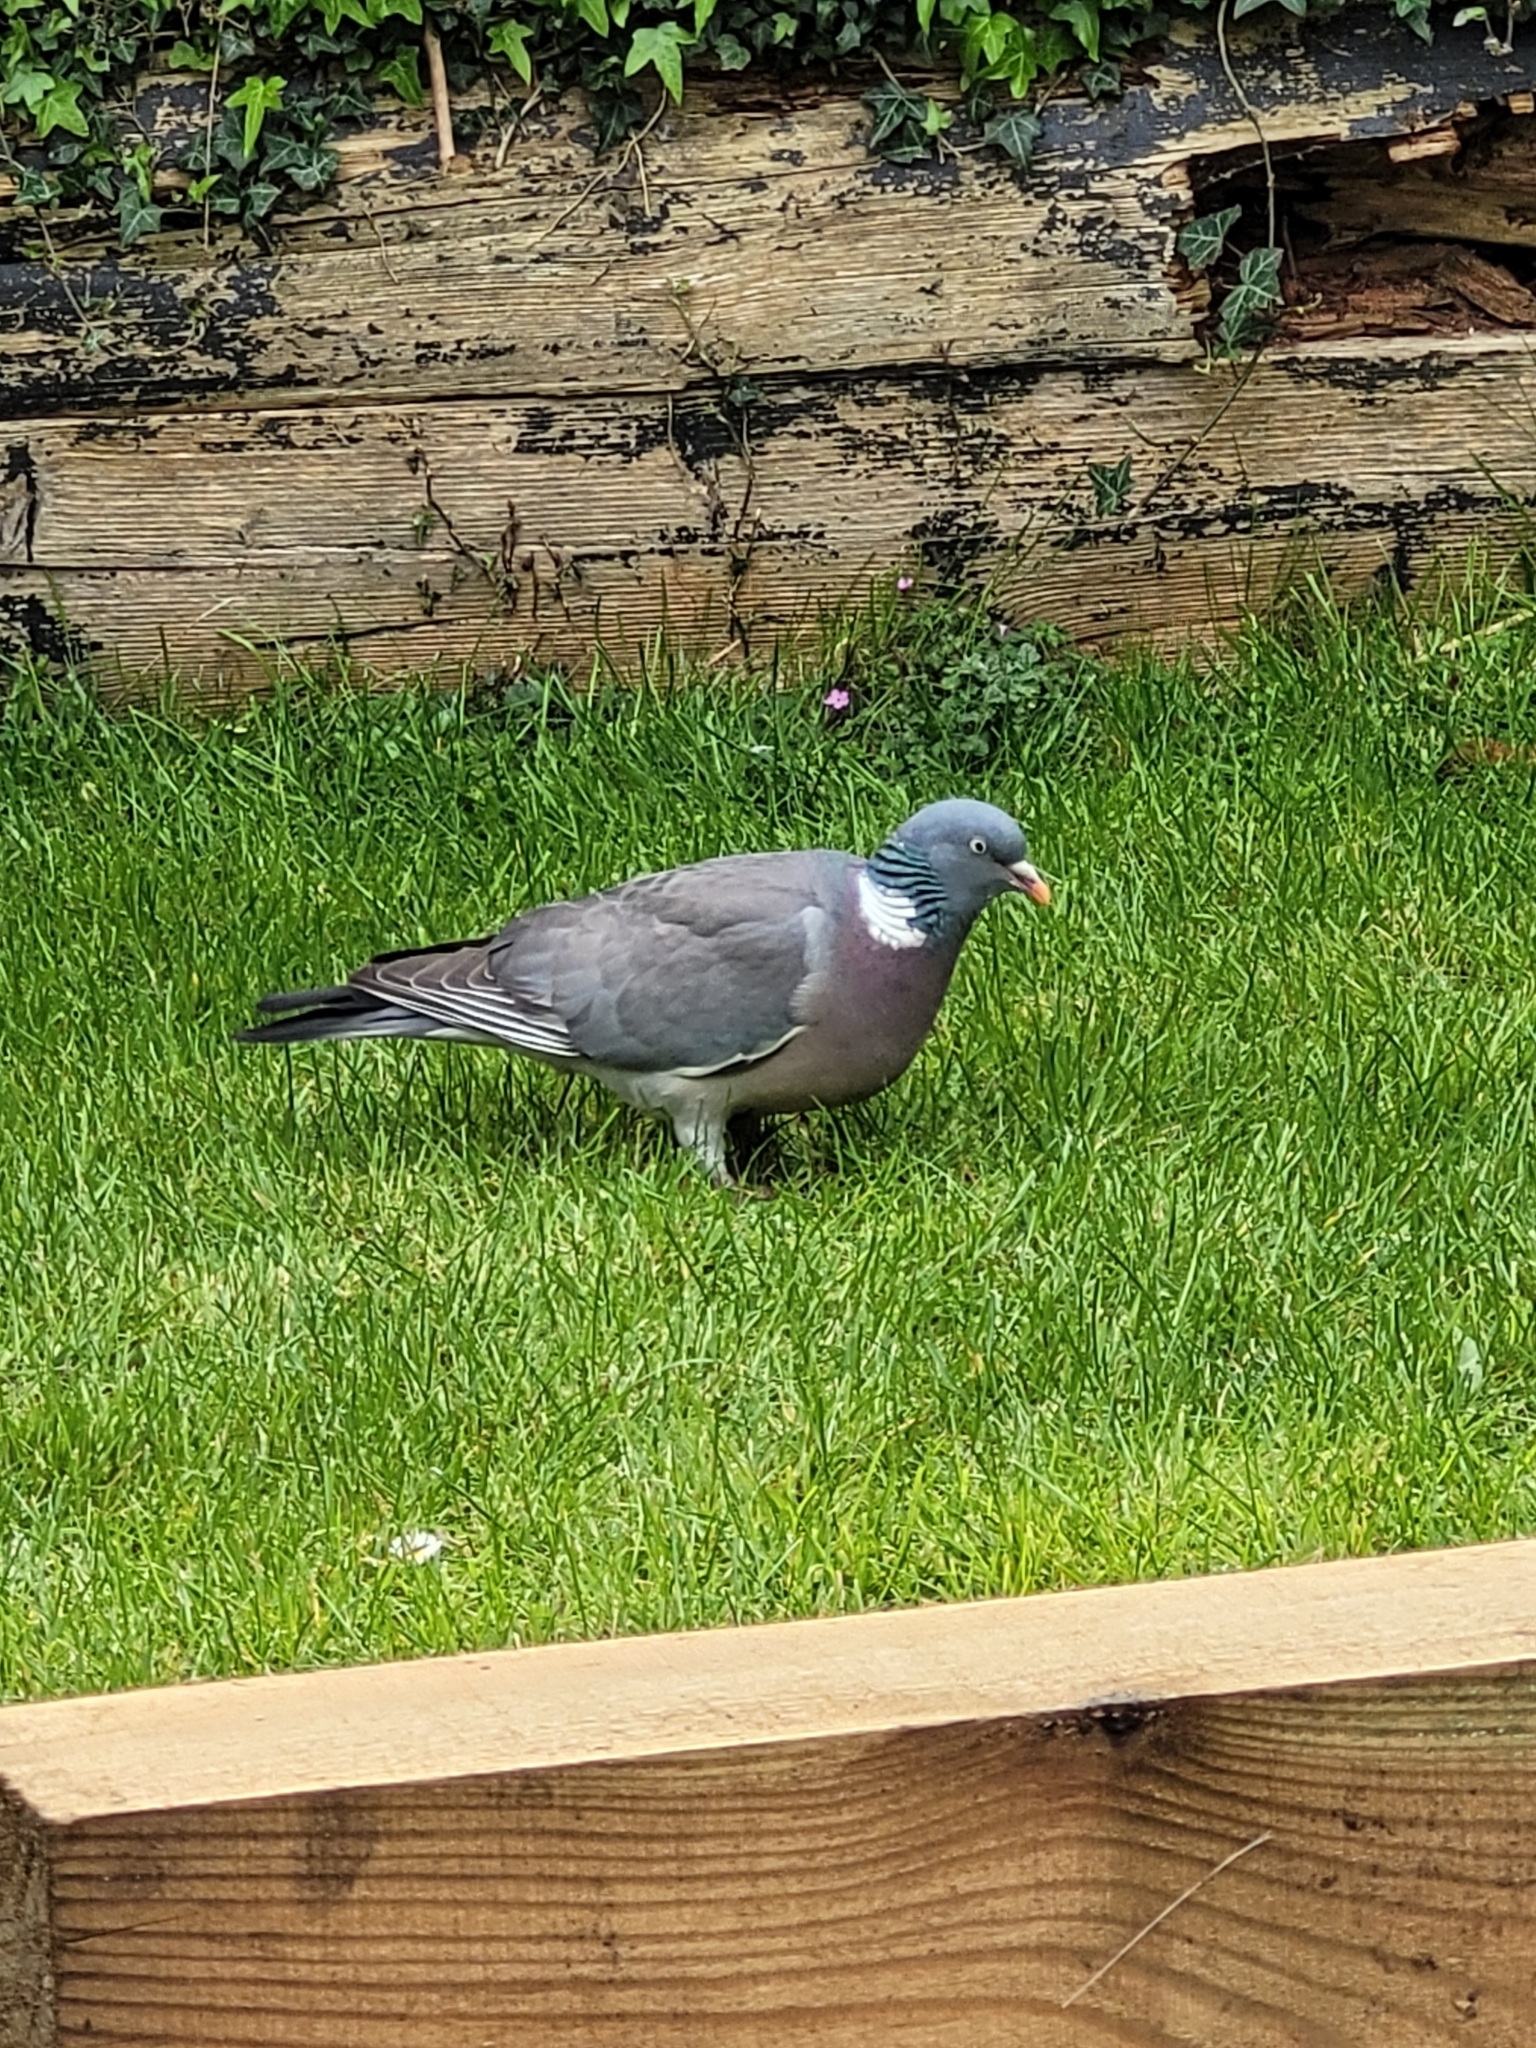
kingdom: Animalia
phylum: Chordata
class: Aves
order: Columbiformes
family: Columbidae
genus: Columba
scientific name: Columba palumbus
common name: Common wood pigeon
